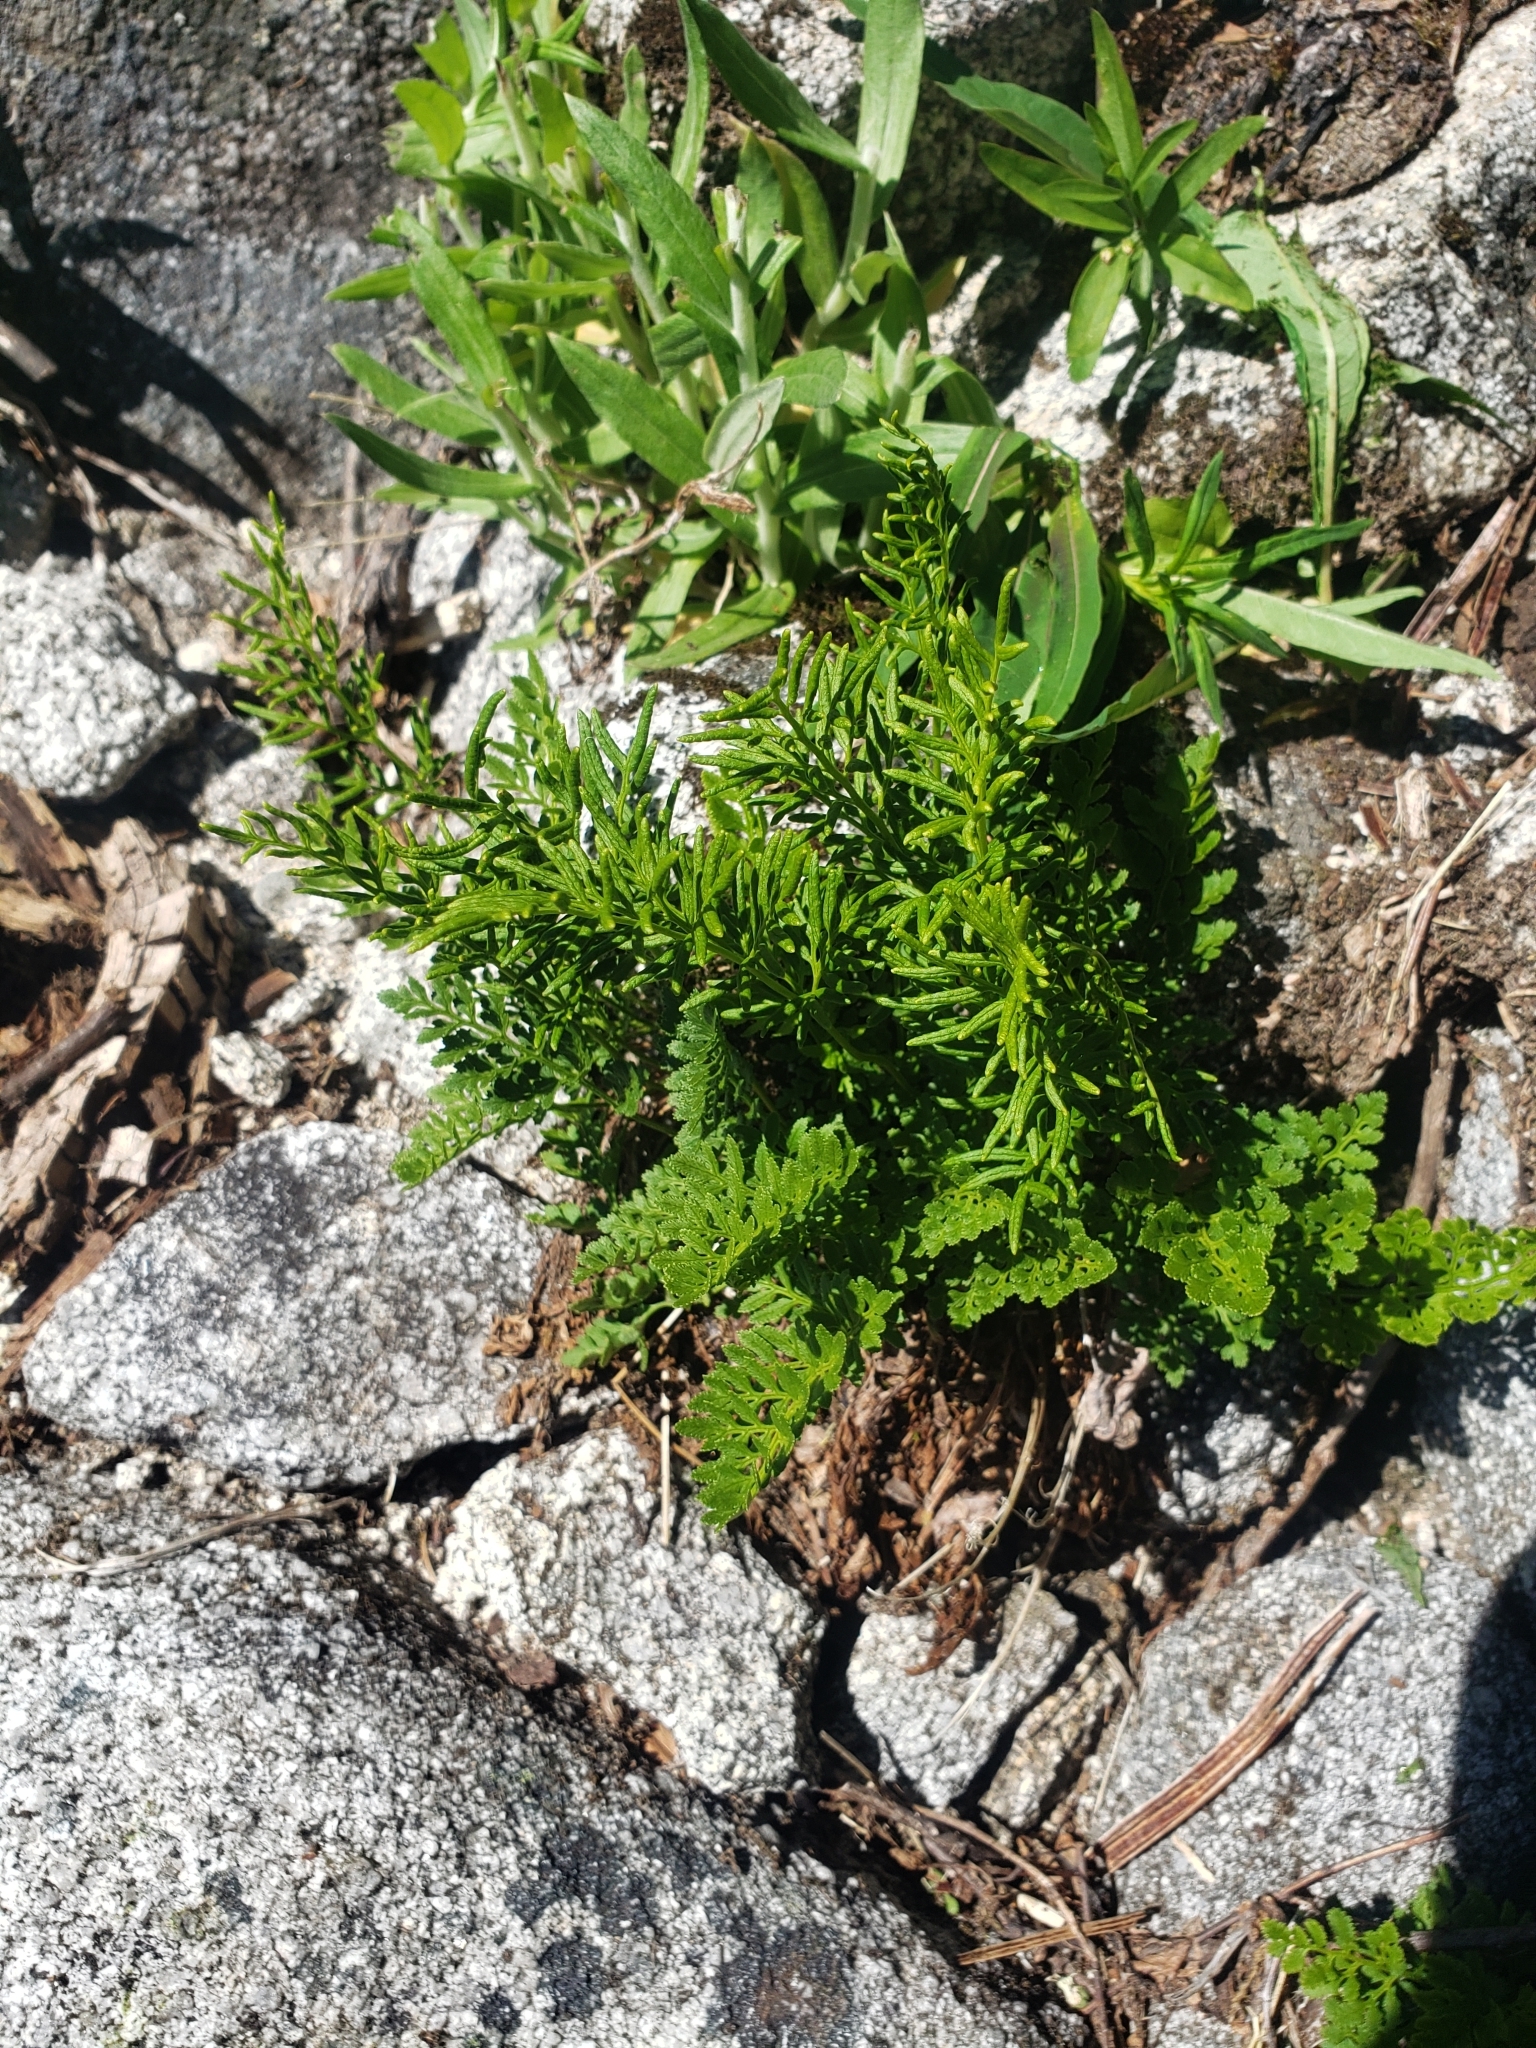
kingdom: Plantae
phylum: Tracheophyta
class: Polypodiopsida
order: Polypodiales
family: Pteridaceae
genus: Cryptogramma
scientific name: Cryptogramma acrostichoides
